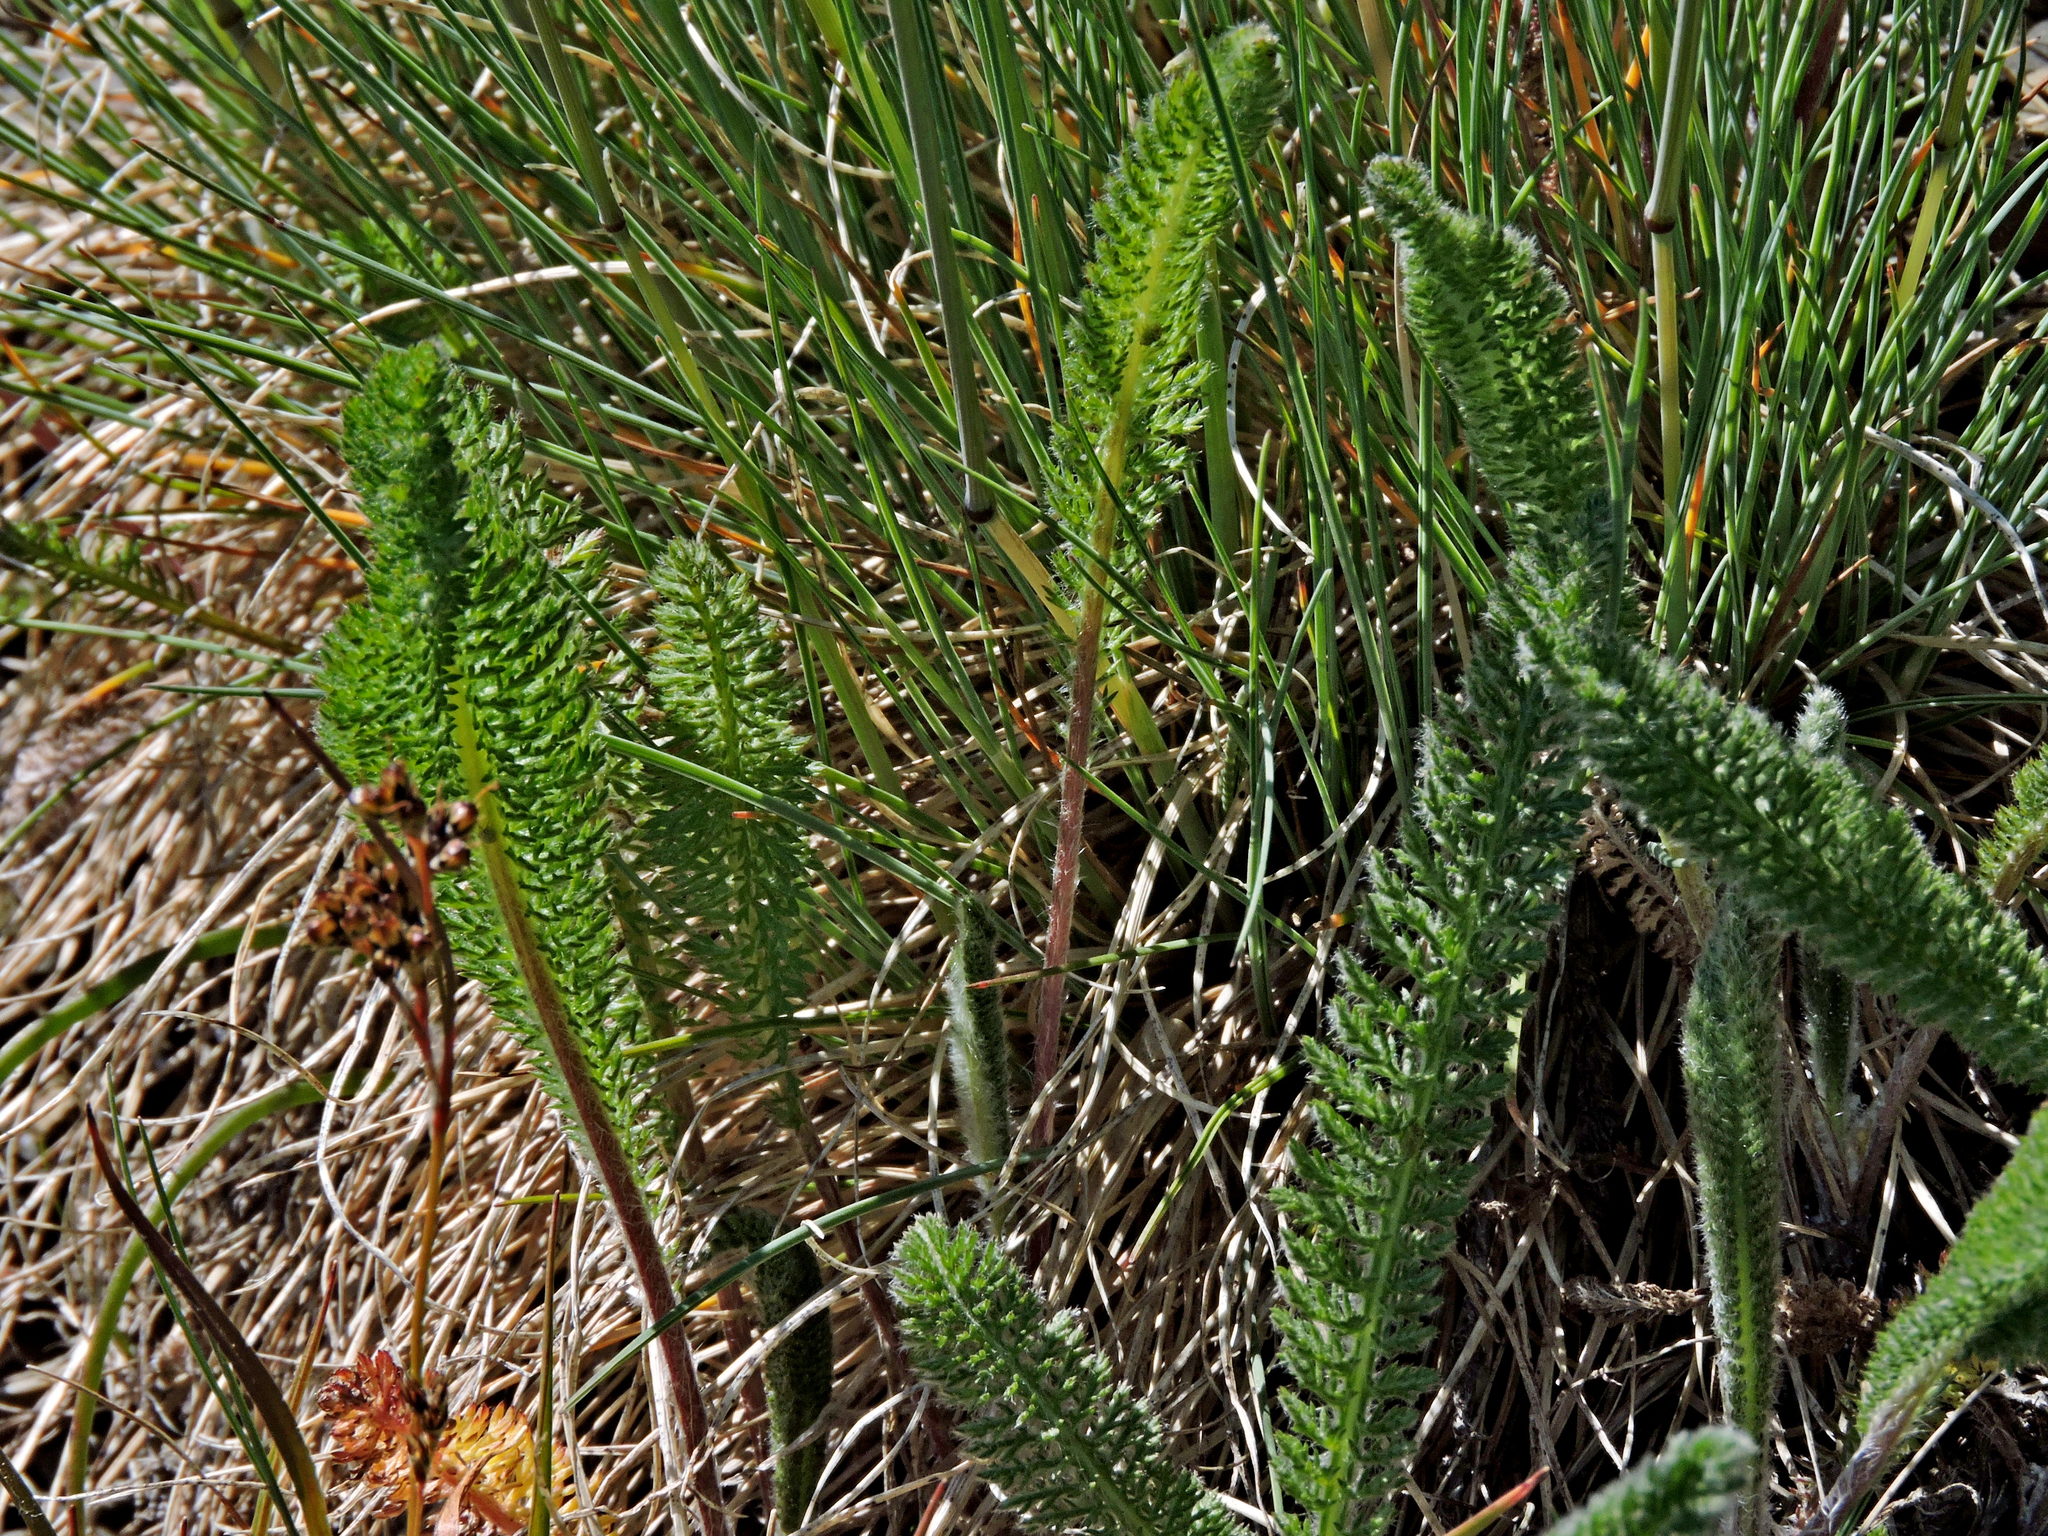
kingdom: Plantae
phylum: Tracheophyta
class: Magnoliopsida
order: Asterales
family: Asteraceae
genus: Achillea
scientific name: Achillea millefolium
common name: Yarrow
